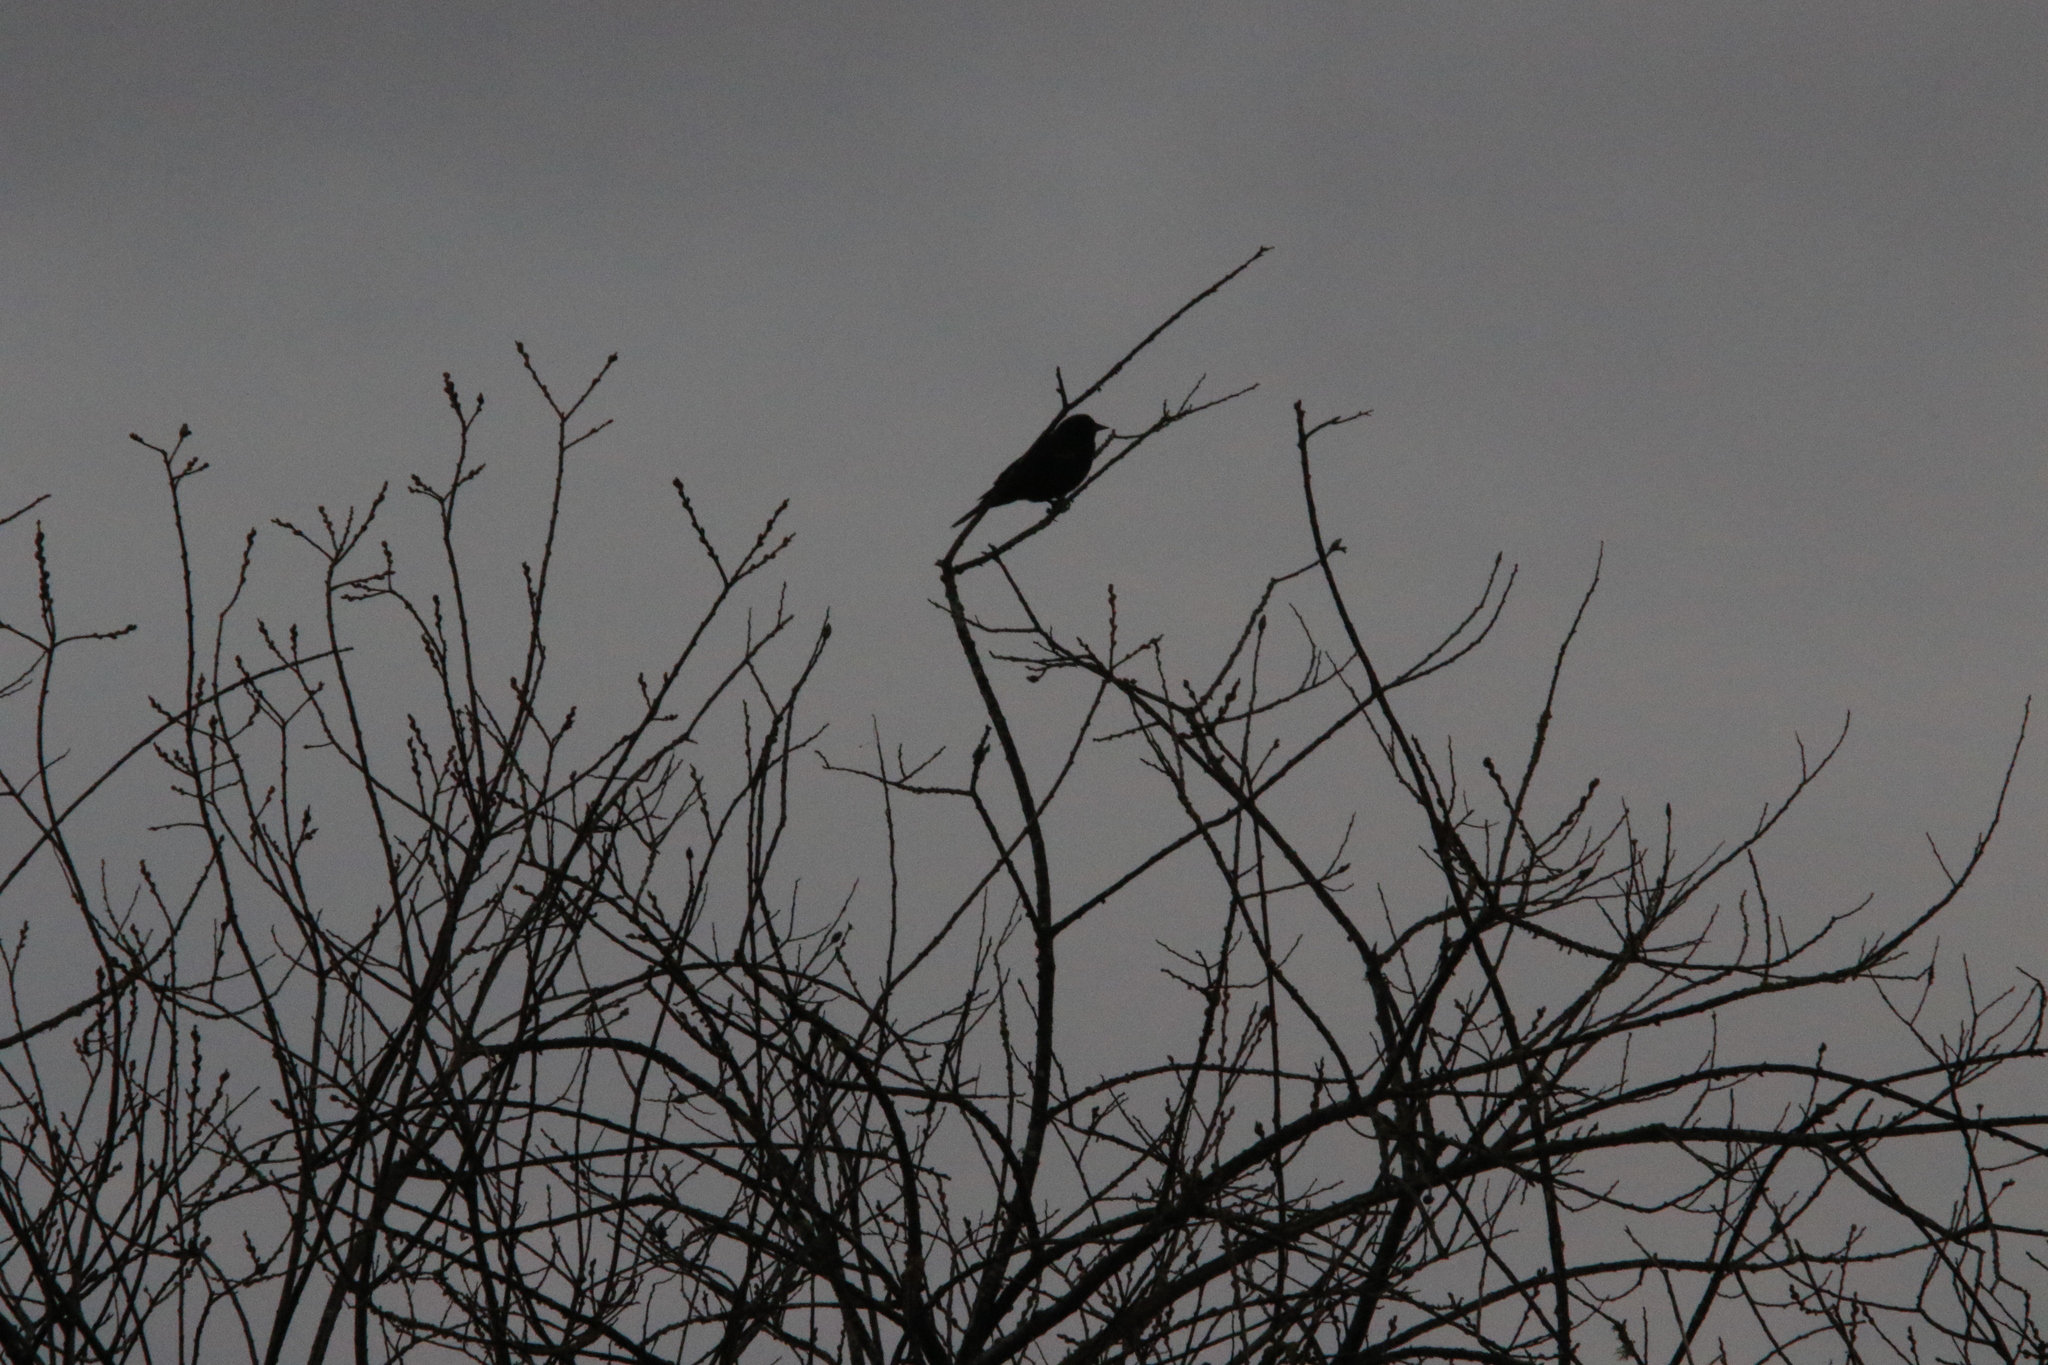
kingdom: Animalia
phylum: Chordata
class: Aves
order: Passeriformes
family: Icteridae
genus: Agelaius
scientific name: Agelaius phoeniceus
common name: Red-winged blackbird
